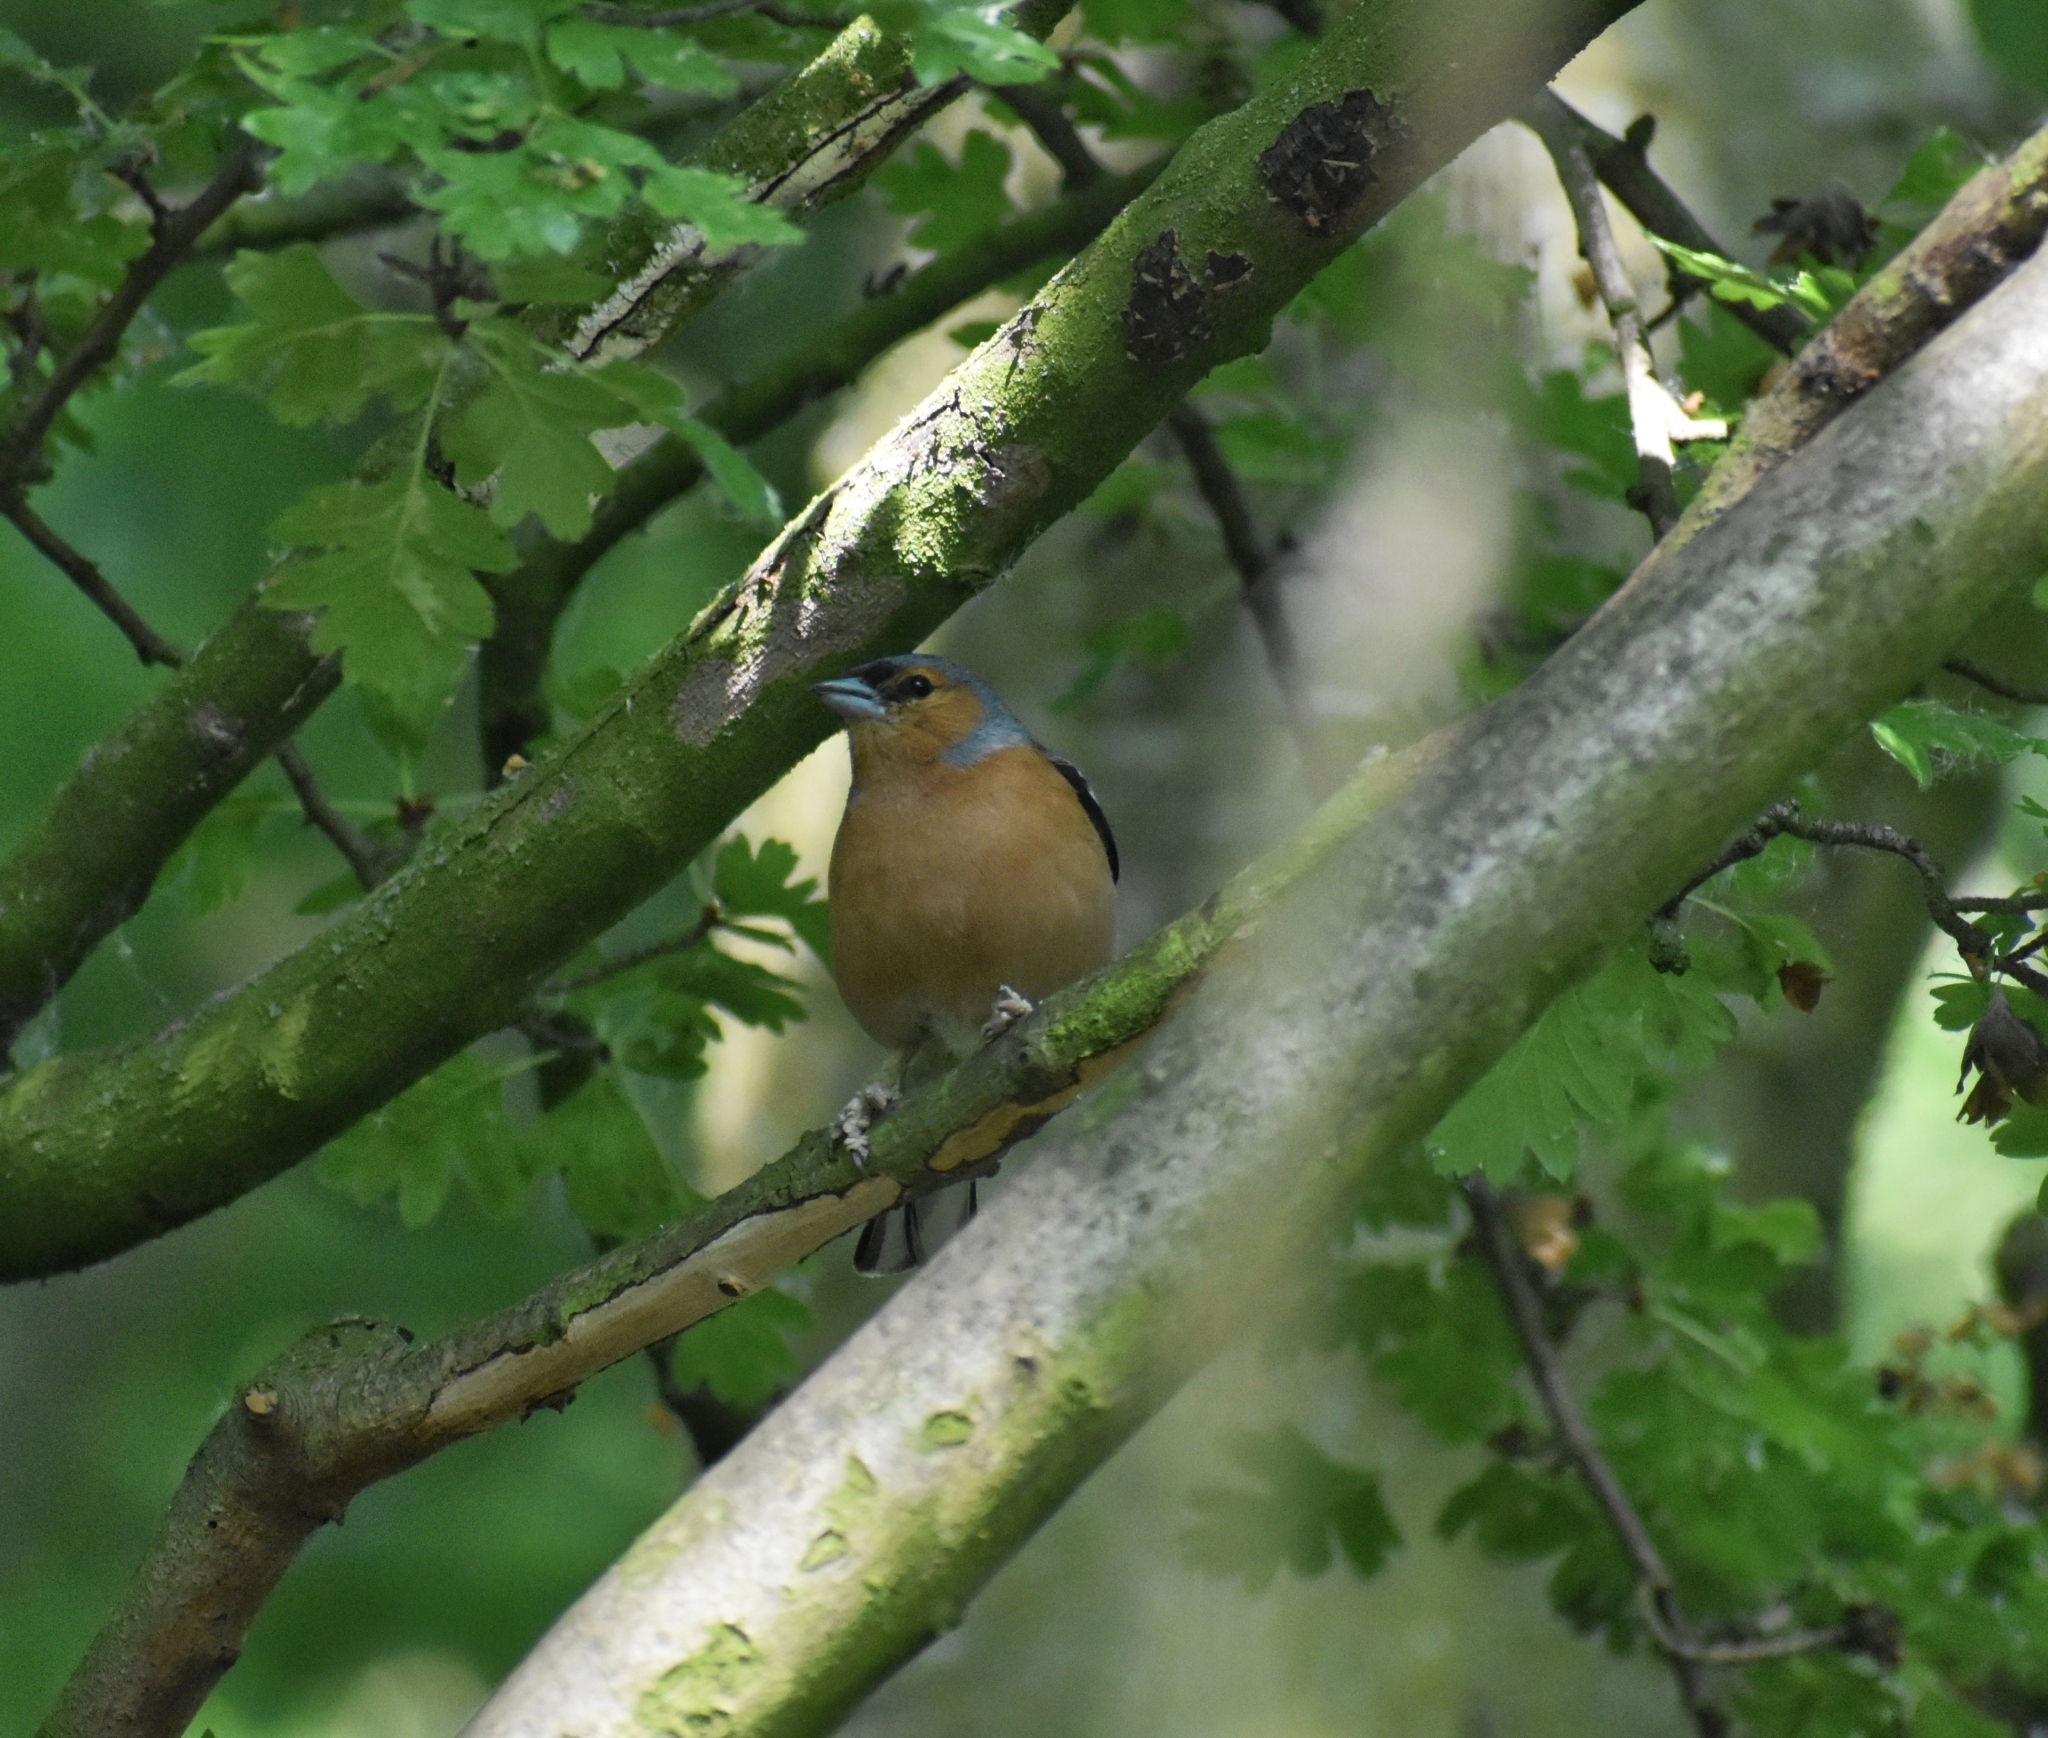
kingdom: Animalia
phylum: Chordata
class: Aves
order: Passeriformes
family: Fringillidae
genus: Fringilla
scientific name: Fringilla coelebs
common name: Common chaffinch
